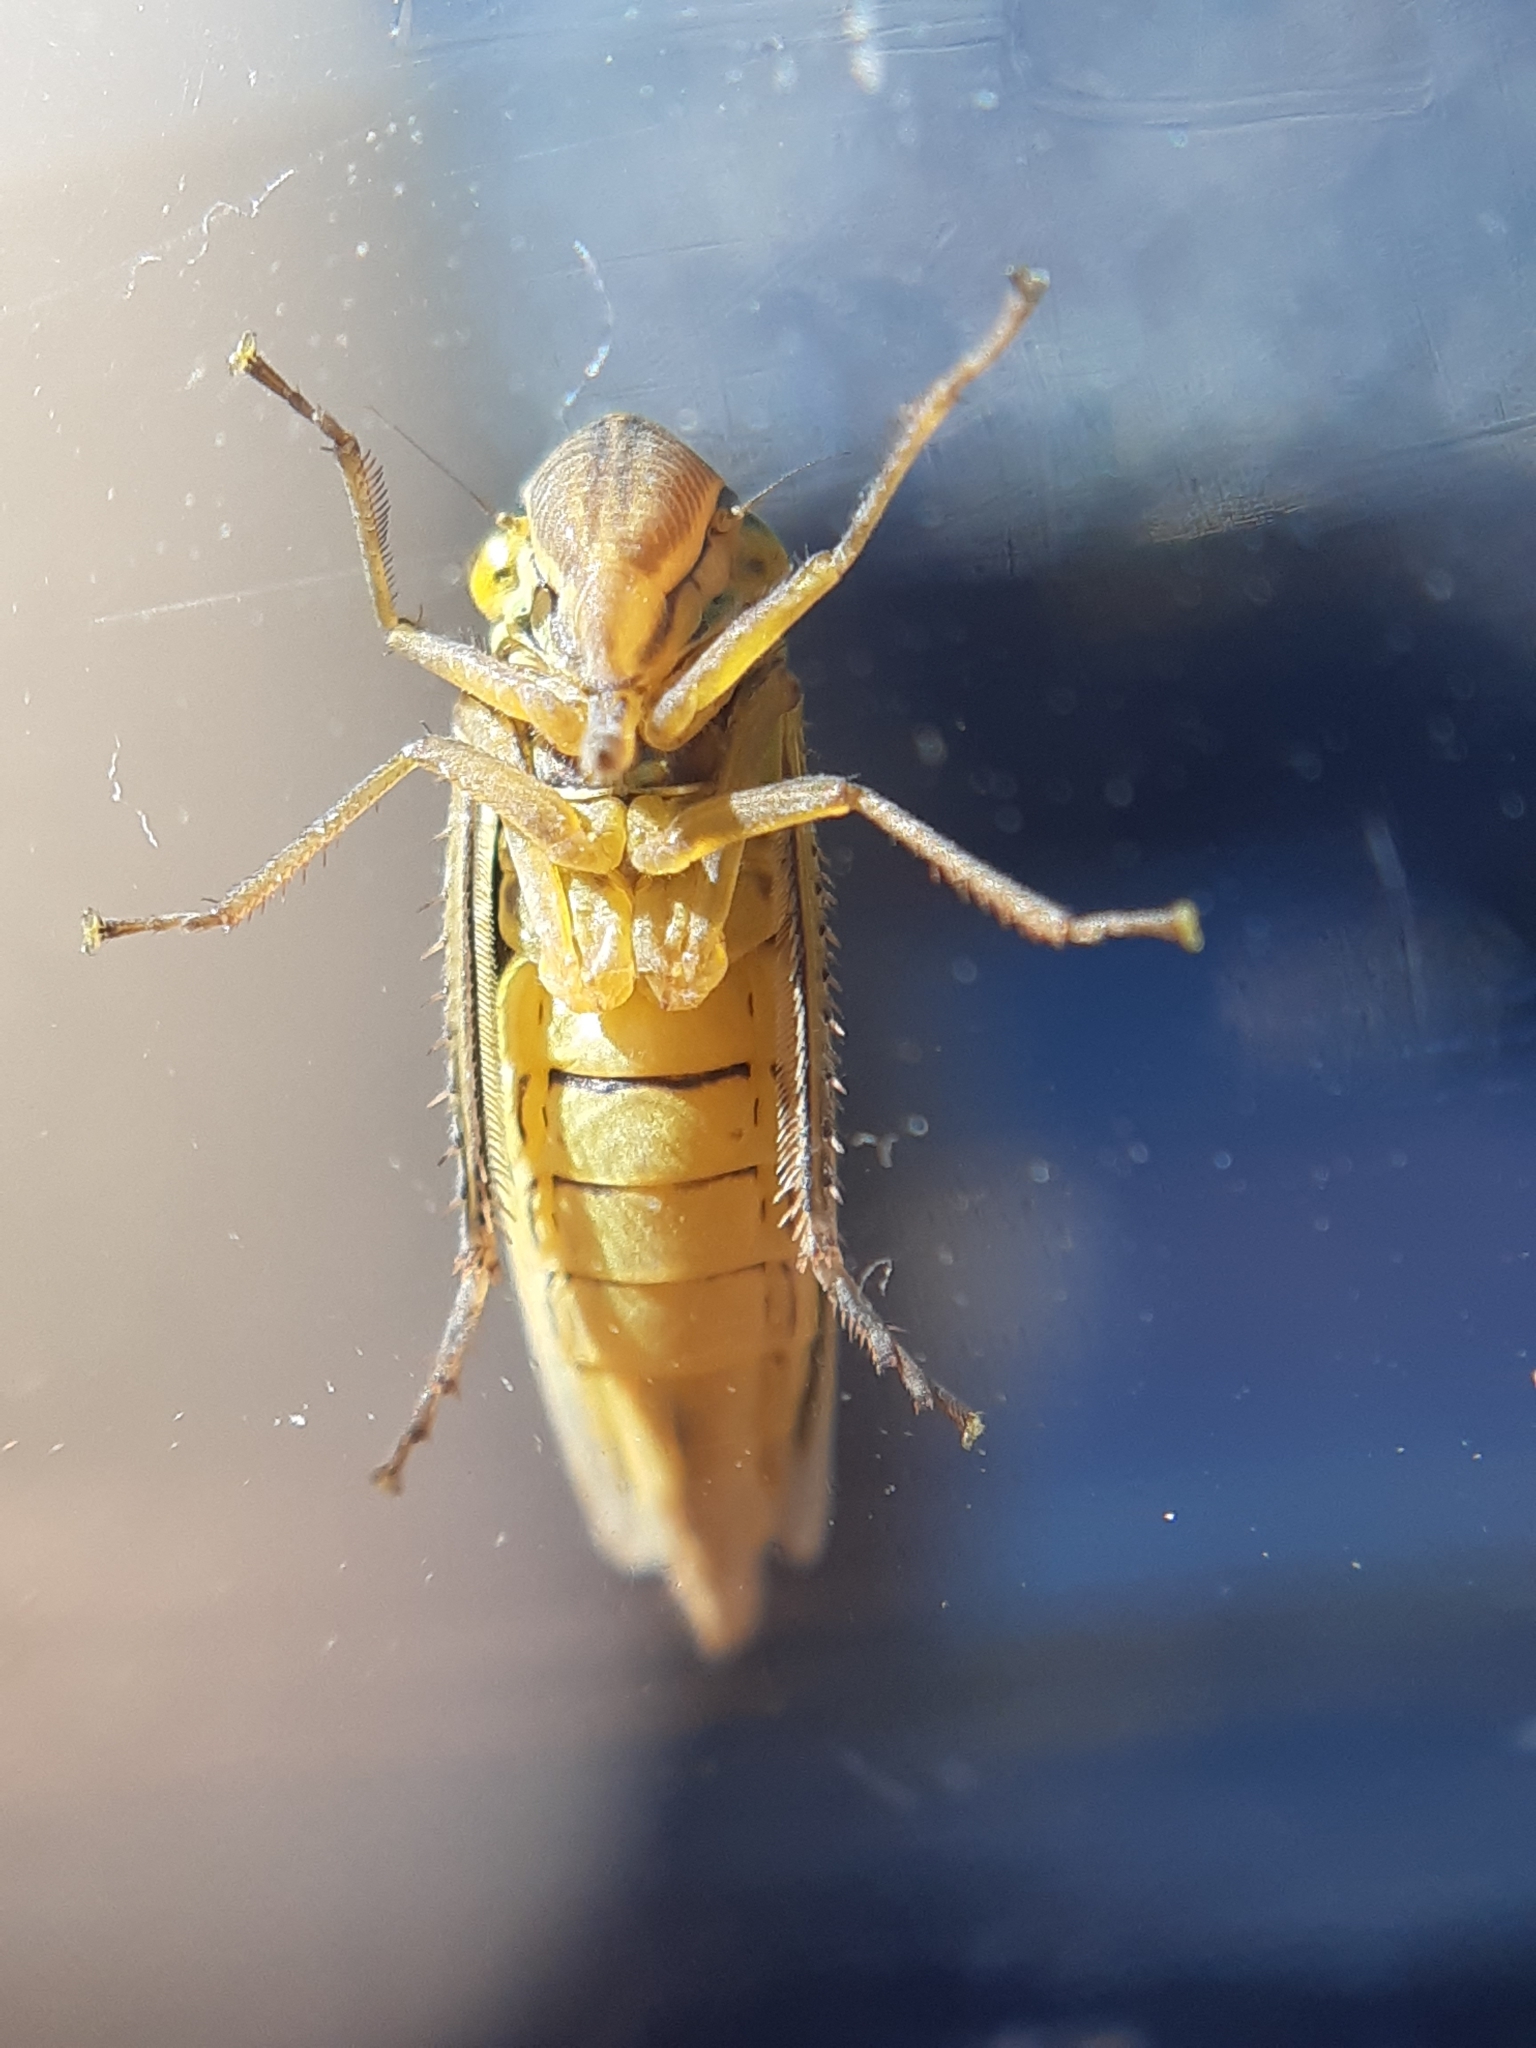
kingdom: Animalia
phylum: Arthropoda
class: Insecta
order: Hemiptera
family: Cicadellidae
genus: Cicadella
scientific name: Cicadella viridis
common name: Leafhopper
